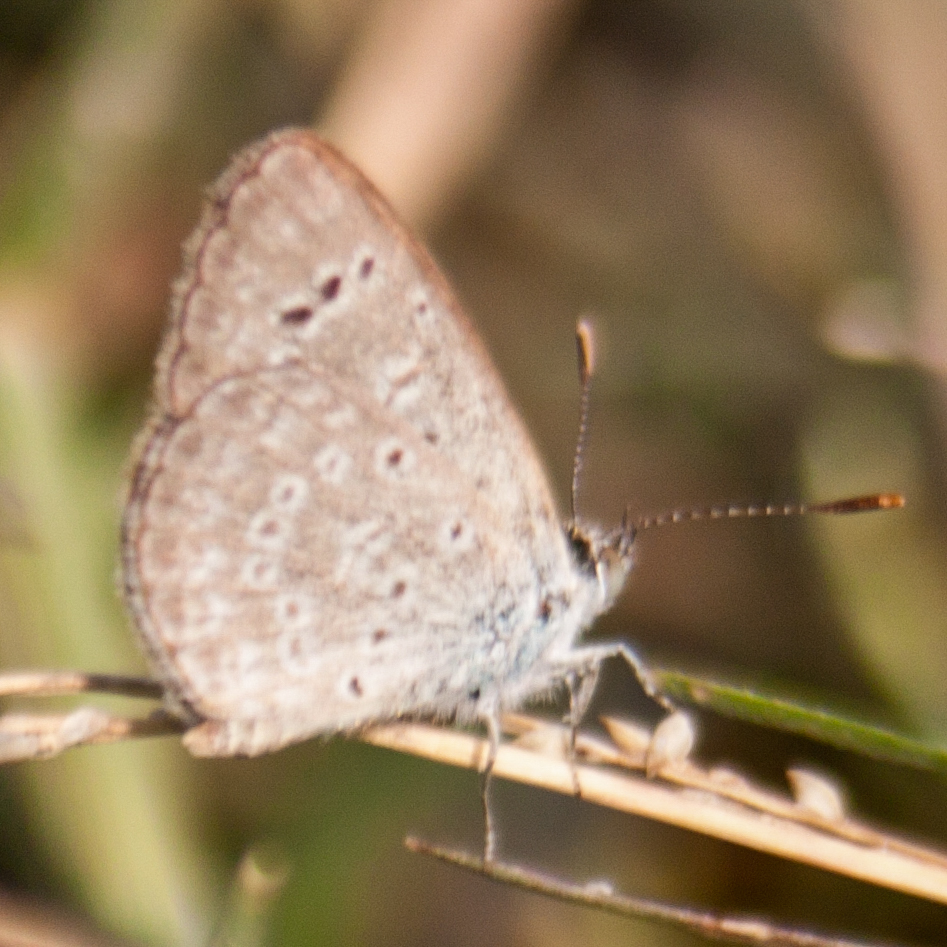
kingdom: Animalia
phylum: Arthropoda
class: Insecta
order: Lepidoptera
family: Lycaenidae
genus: Zizeeria
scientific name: Zizeeria karsandra
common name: Dark grass blue
